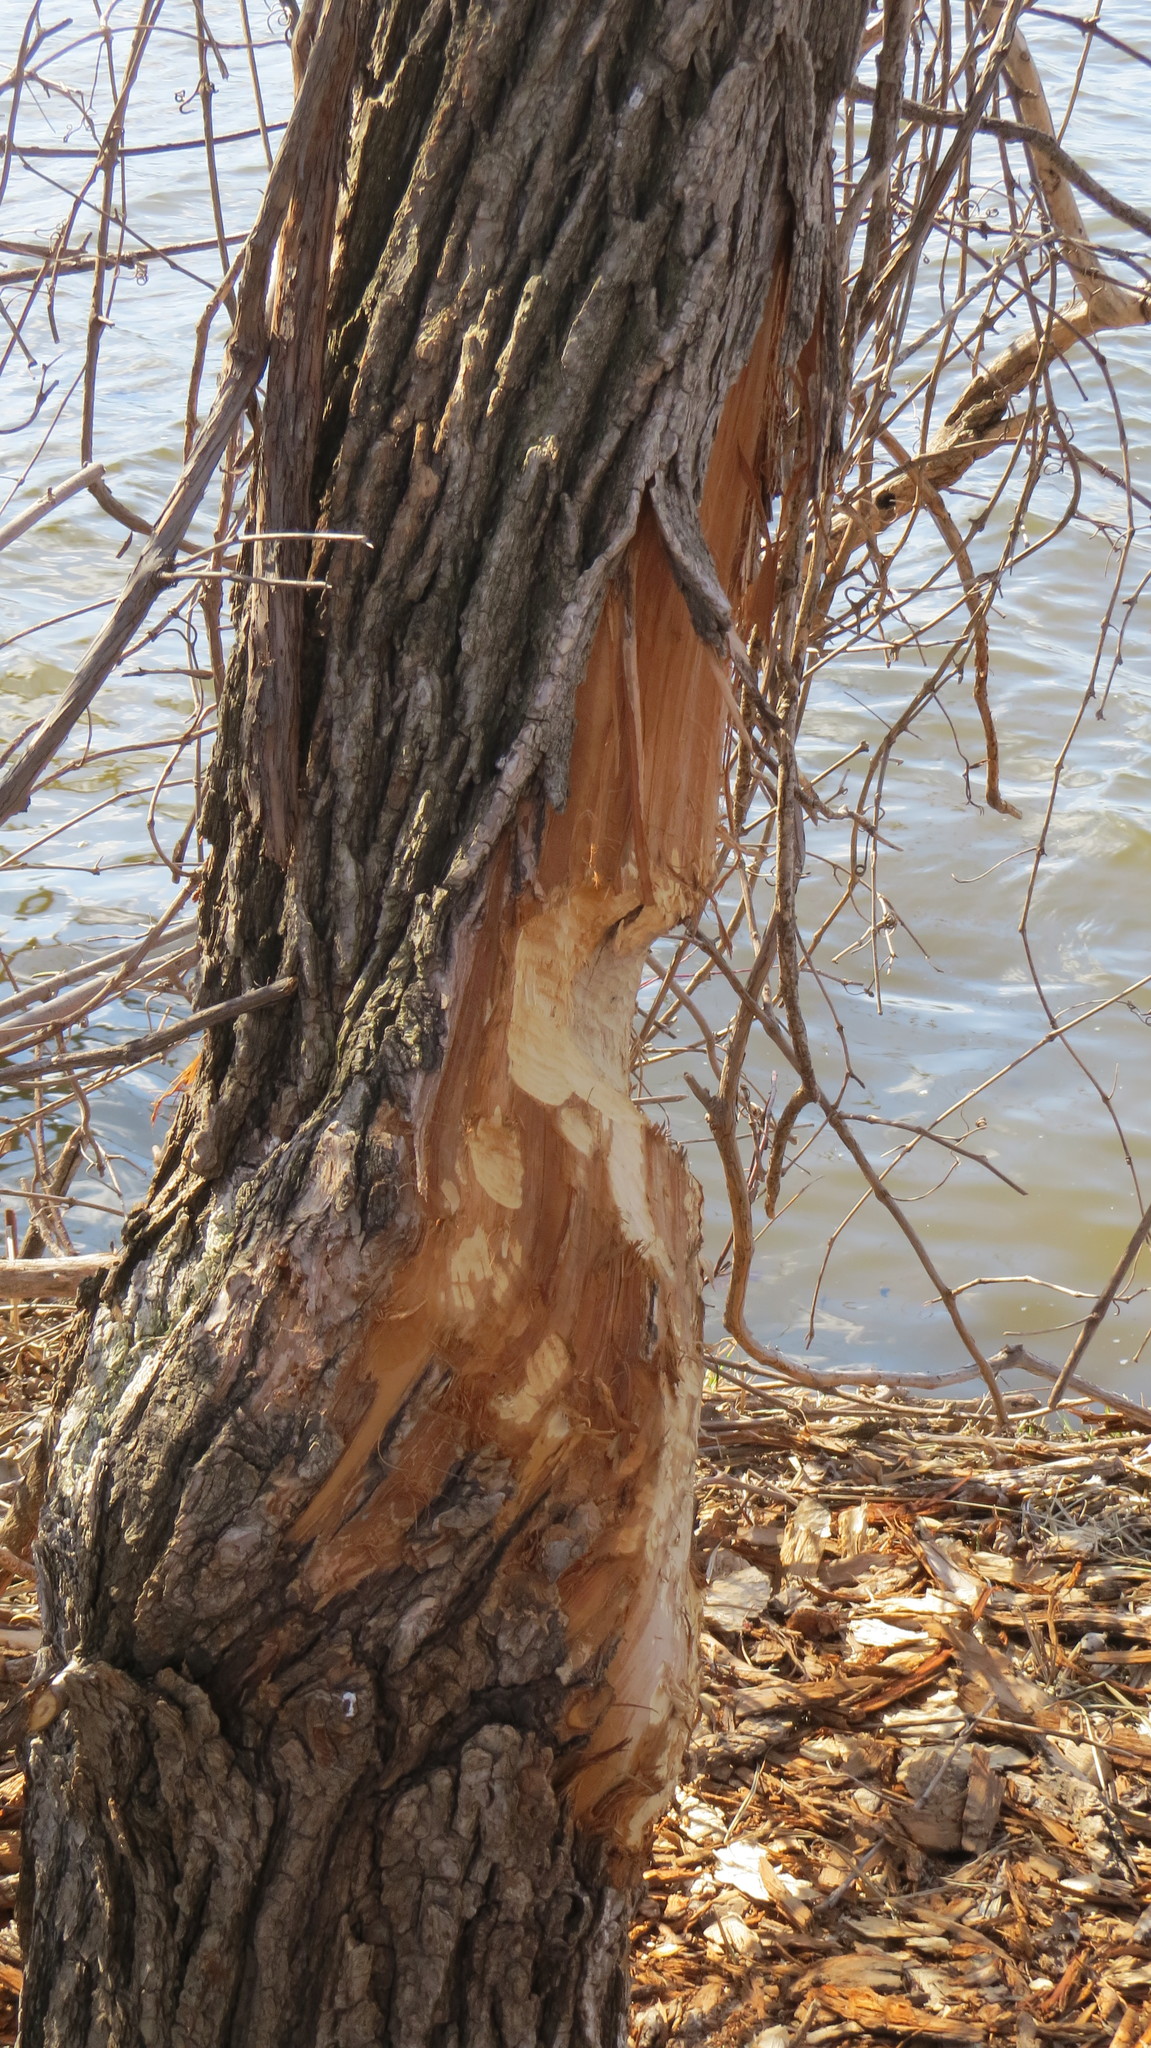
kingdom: Animalia
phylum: Chordata
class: Mammalia
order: Rodentia
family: Castoridae
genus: Castor
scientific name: Castor canadensis
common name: American beaver
